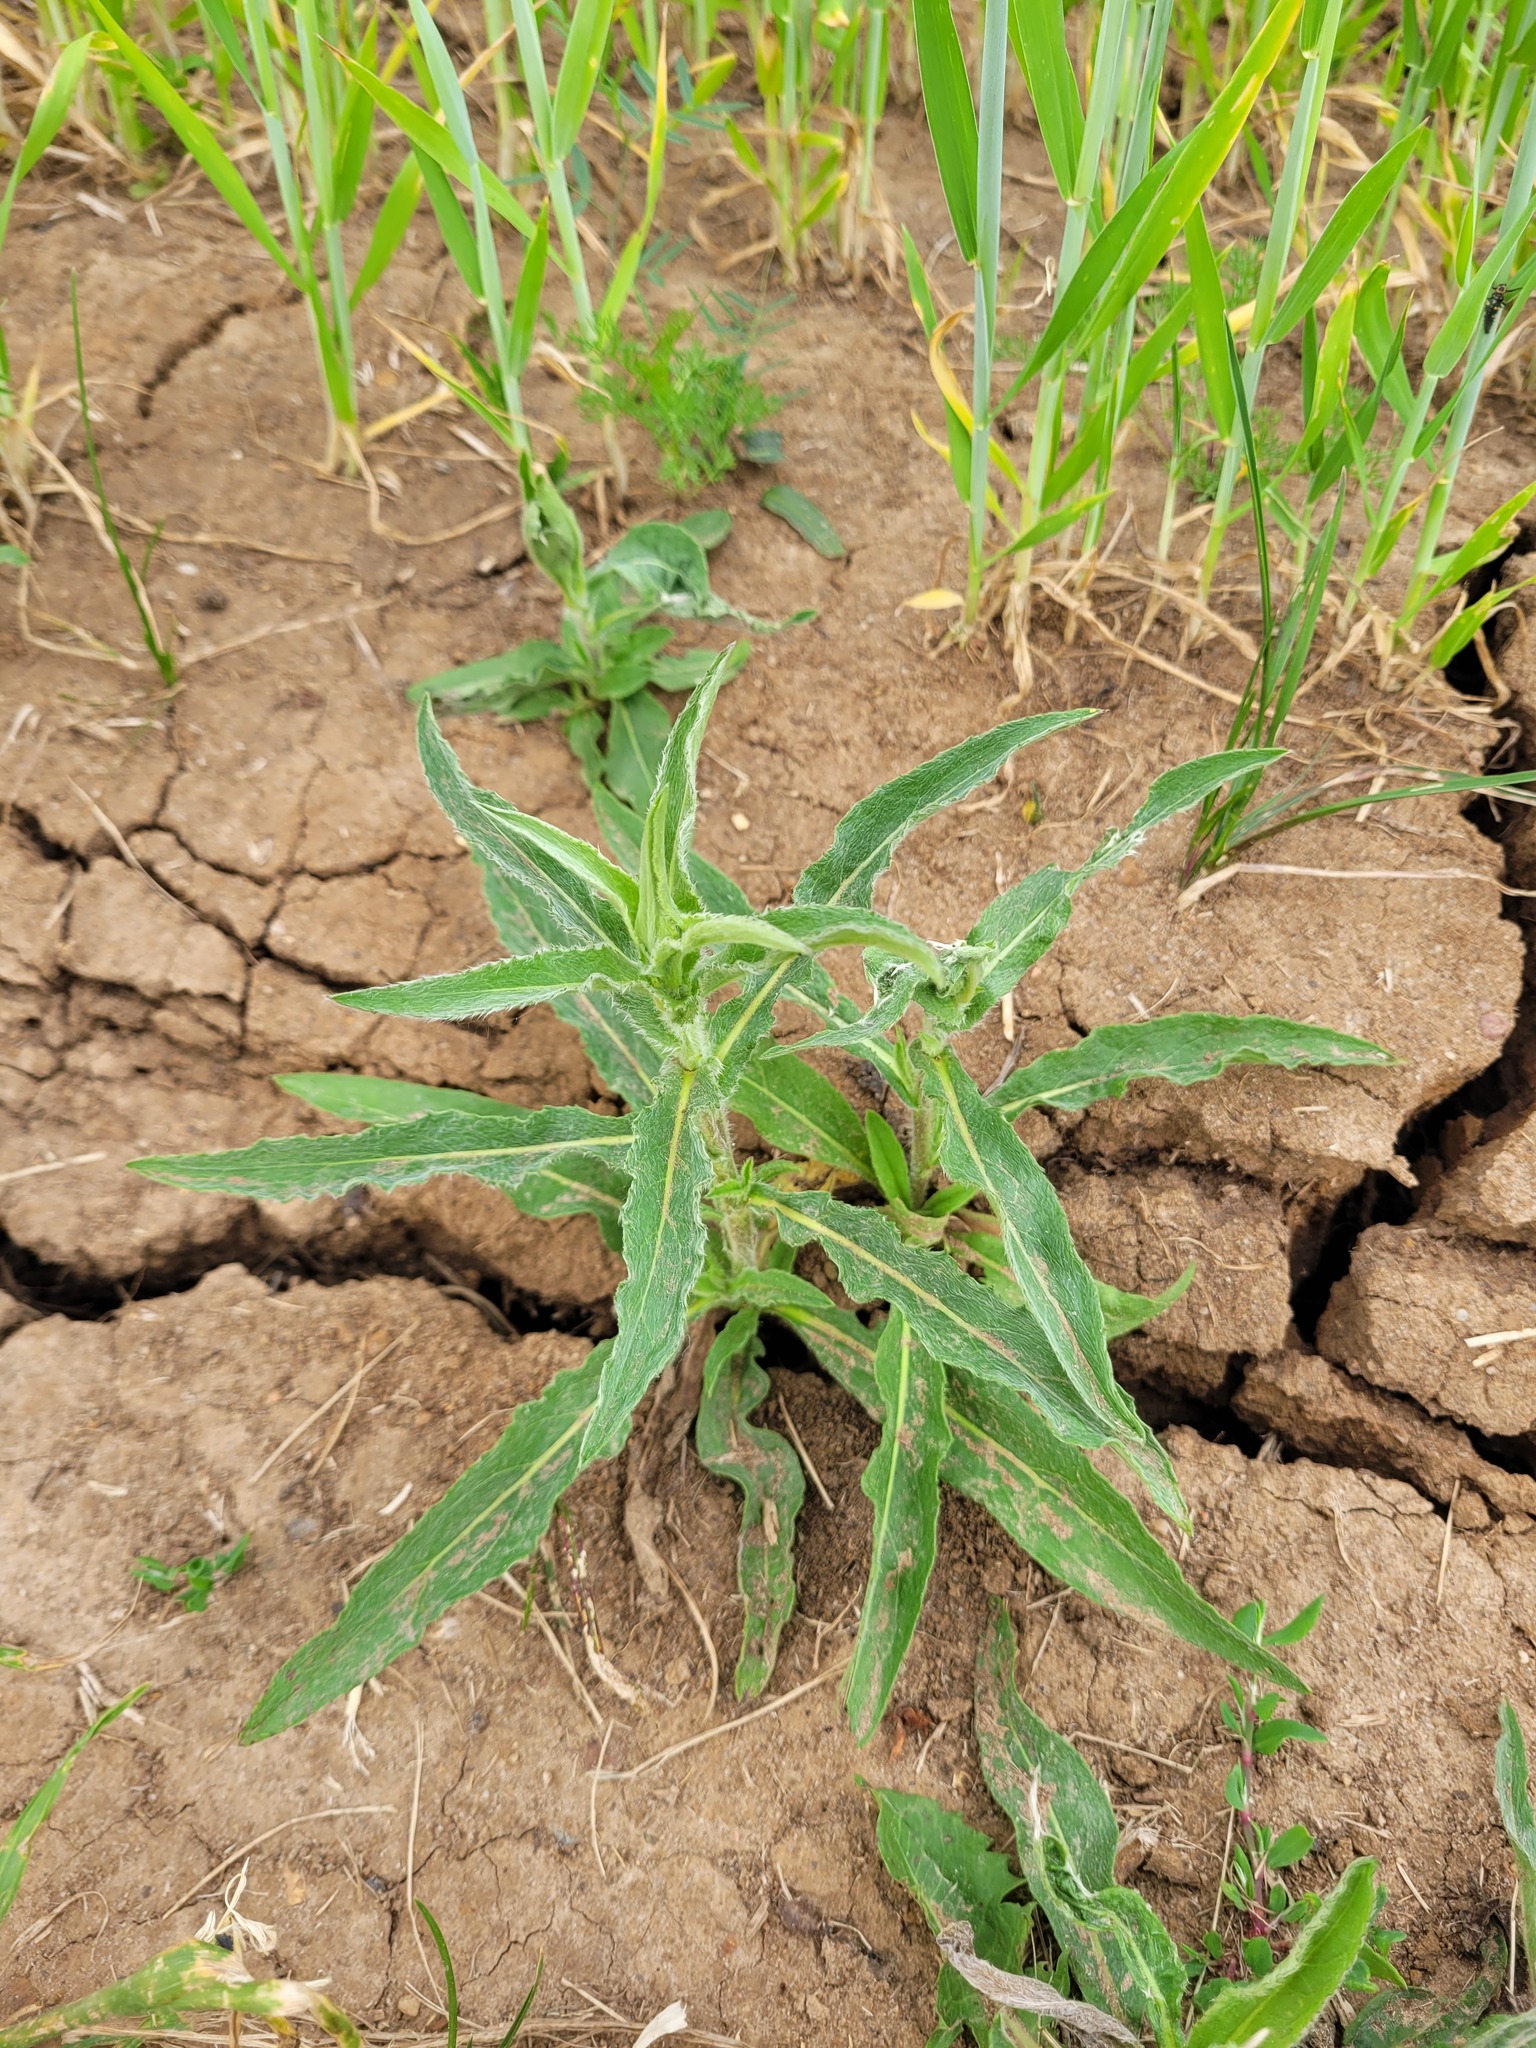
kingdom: Plantae
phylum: Tracheophyta
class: Magnoliopsida
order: Asterales
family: Asteraceae
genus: Pentanema
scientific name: Pentanema britannicum
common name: British elecampane
